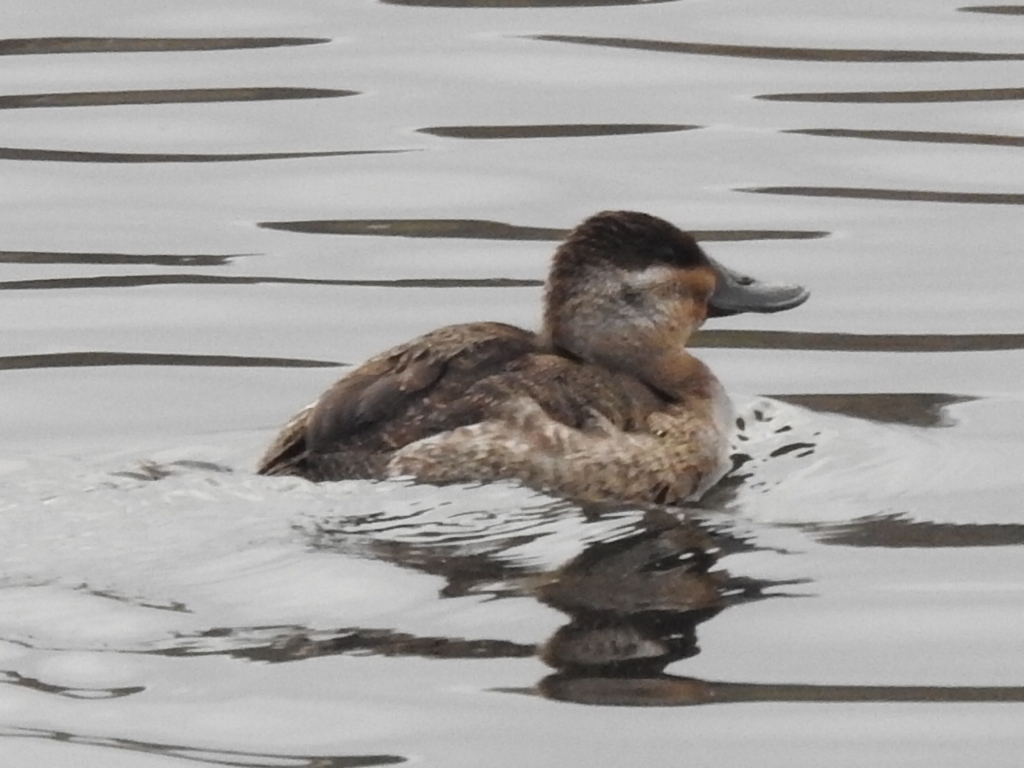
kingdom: Animalia
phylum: Chordata
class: Aves
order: Anseriformes
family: Anatidae
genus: Oxyura
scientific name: Oxyura jamaicensis
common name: Ruddy duck
